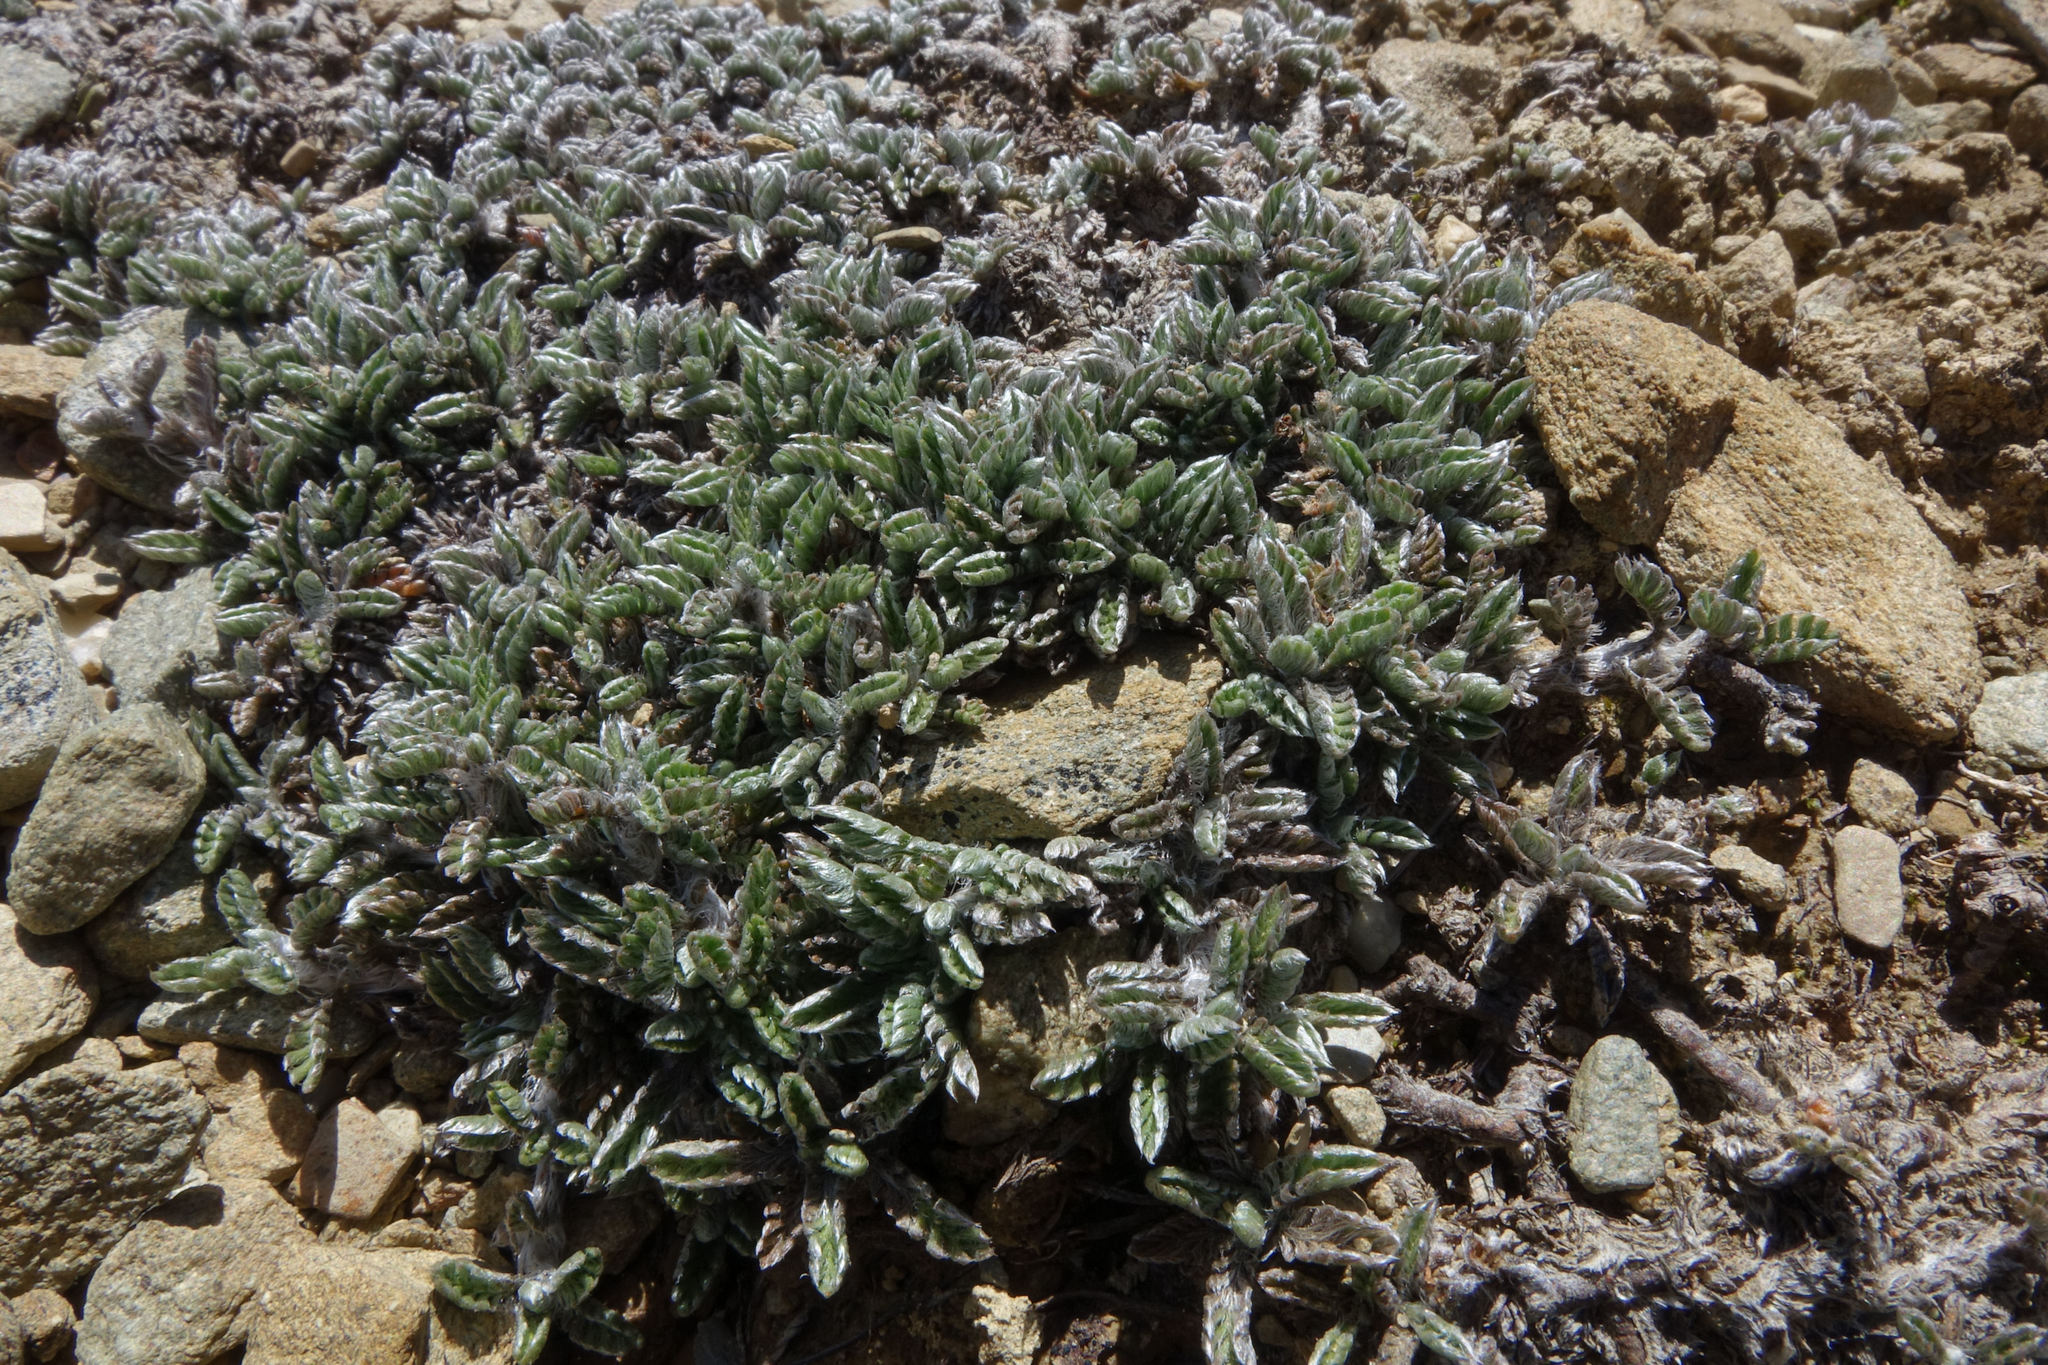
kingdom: Plantae
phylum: Tracheophyta
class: Magnoliopsida
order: Asterales
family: Asteraceae
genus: Leptinella
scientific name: Leptinella pectinata
